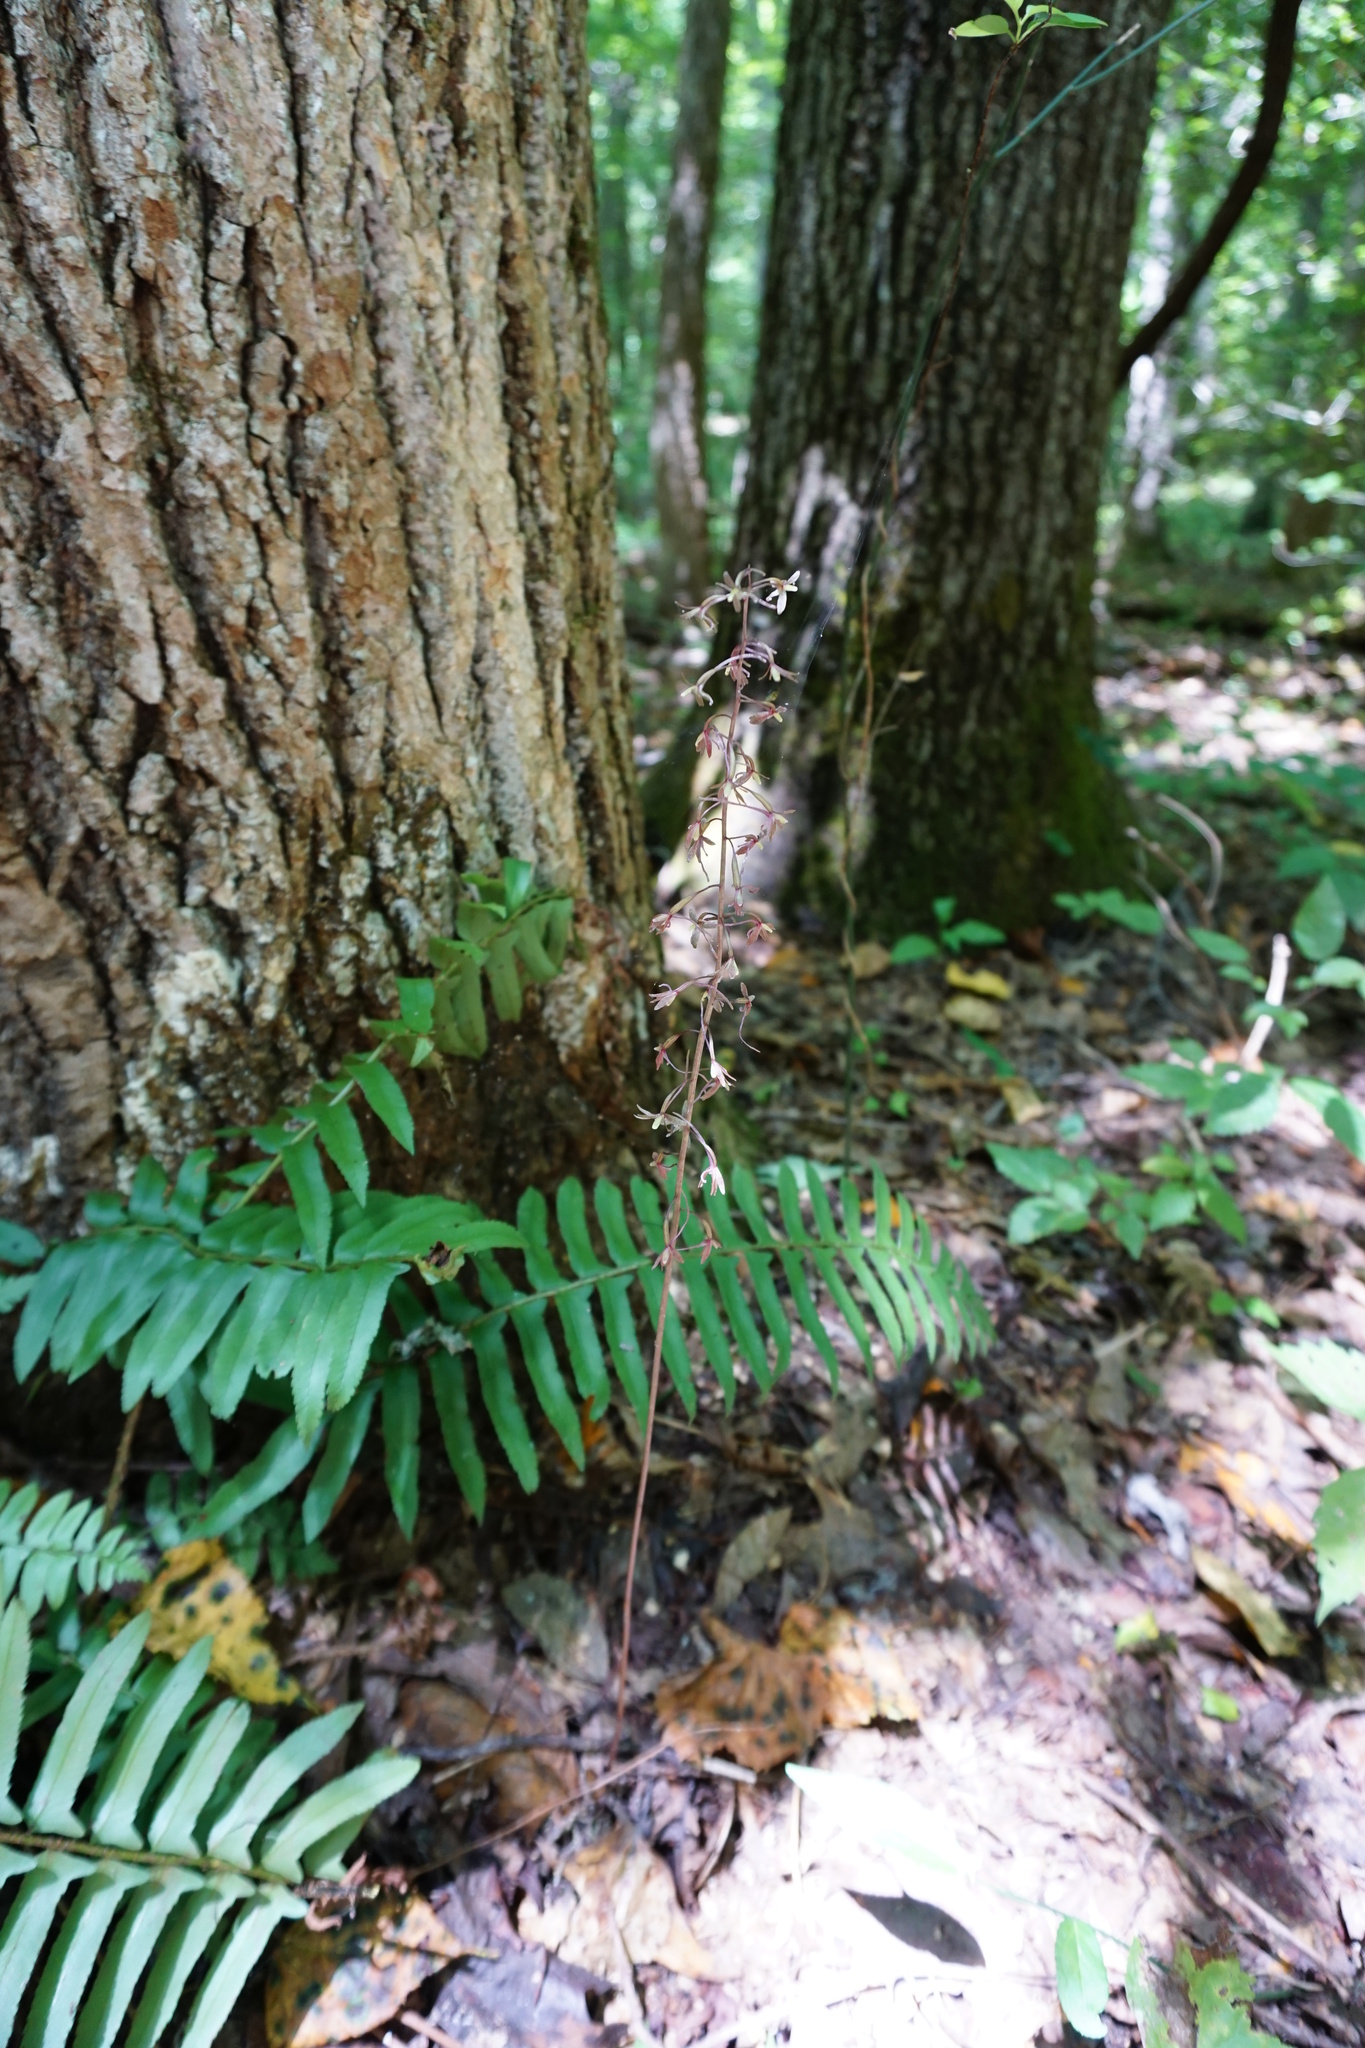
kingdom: Plantae
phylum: Tracheophyta
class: Liliopsida
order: Asparagales
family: Orchidaceae
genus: Tipularia
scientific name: Tipularia discolor
